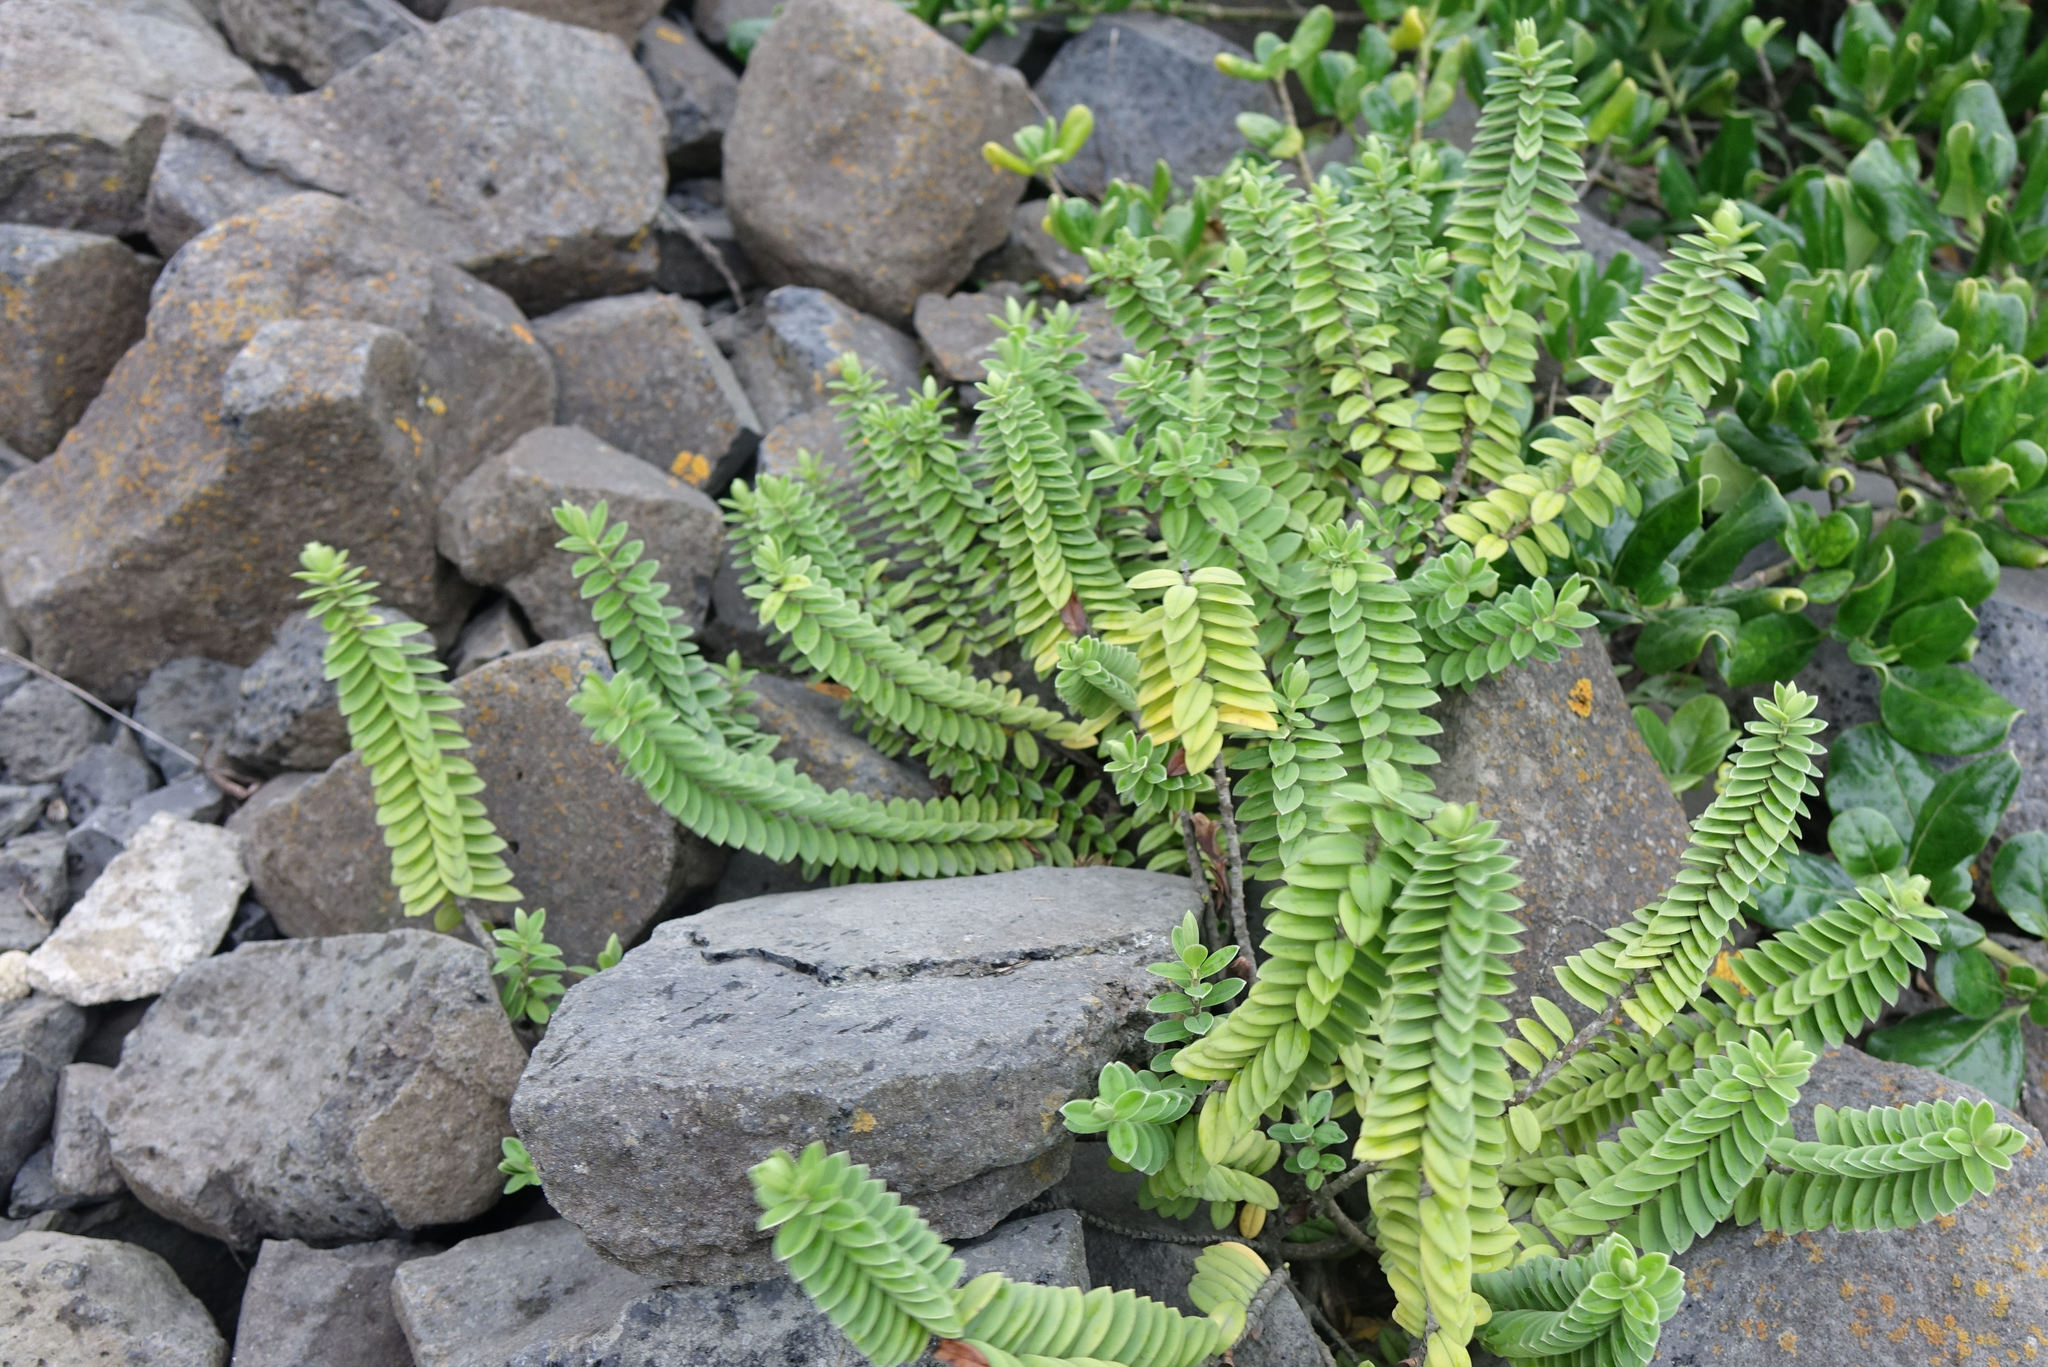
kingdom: Plantae
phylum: Tracheophyta
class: Magnoliopsida
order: Lamiales
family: Plantaginaceae
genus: Veronica
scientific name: Veronica elliptica
